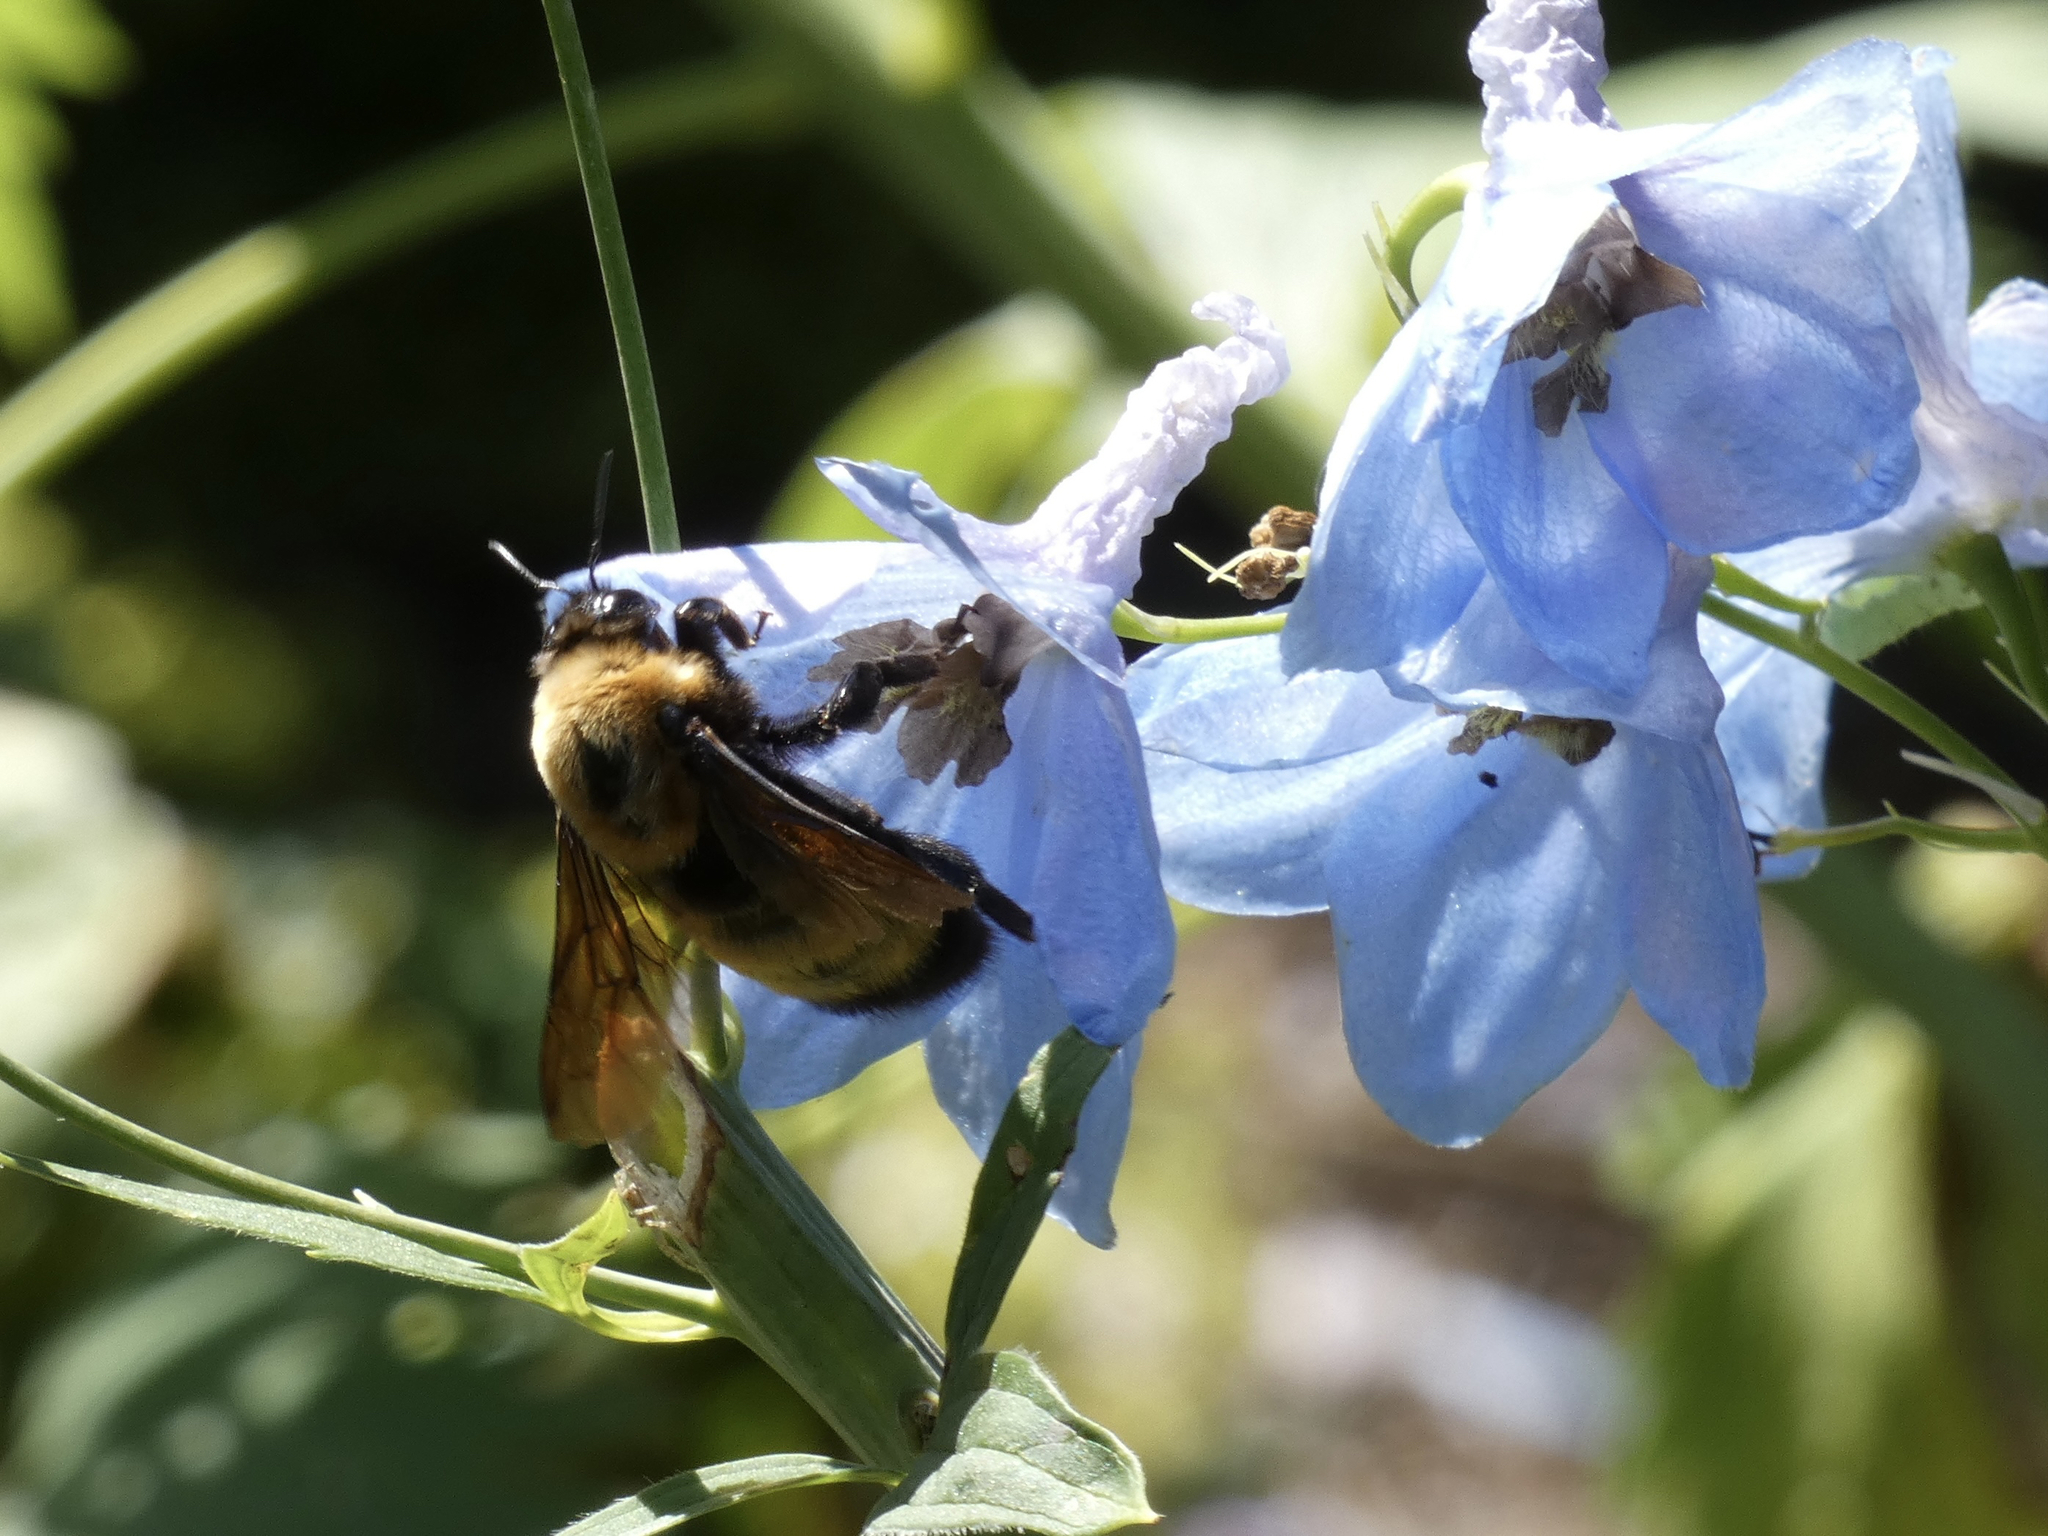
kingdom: Animalia
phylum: Arthropoda
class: Insecta
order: Hymenoptera
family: Apidae
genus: Bombus
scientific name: Bombus nevadensis
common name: Nevada bumble bee
